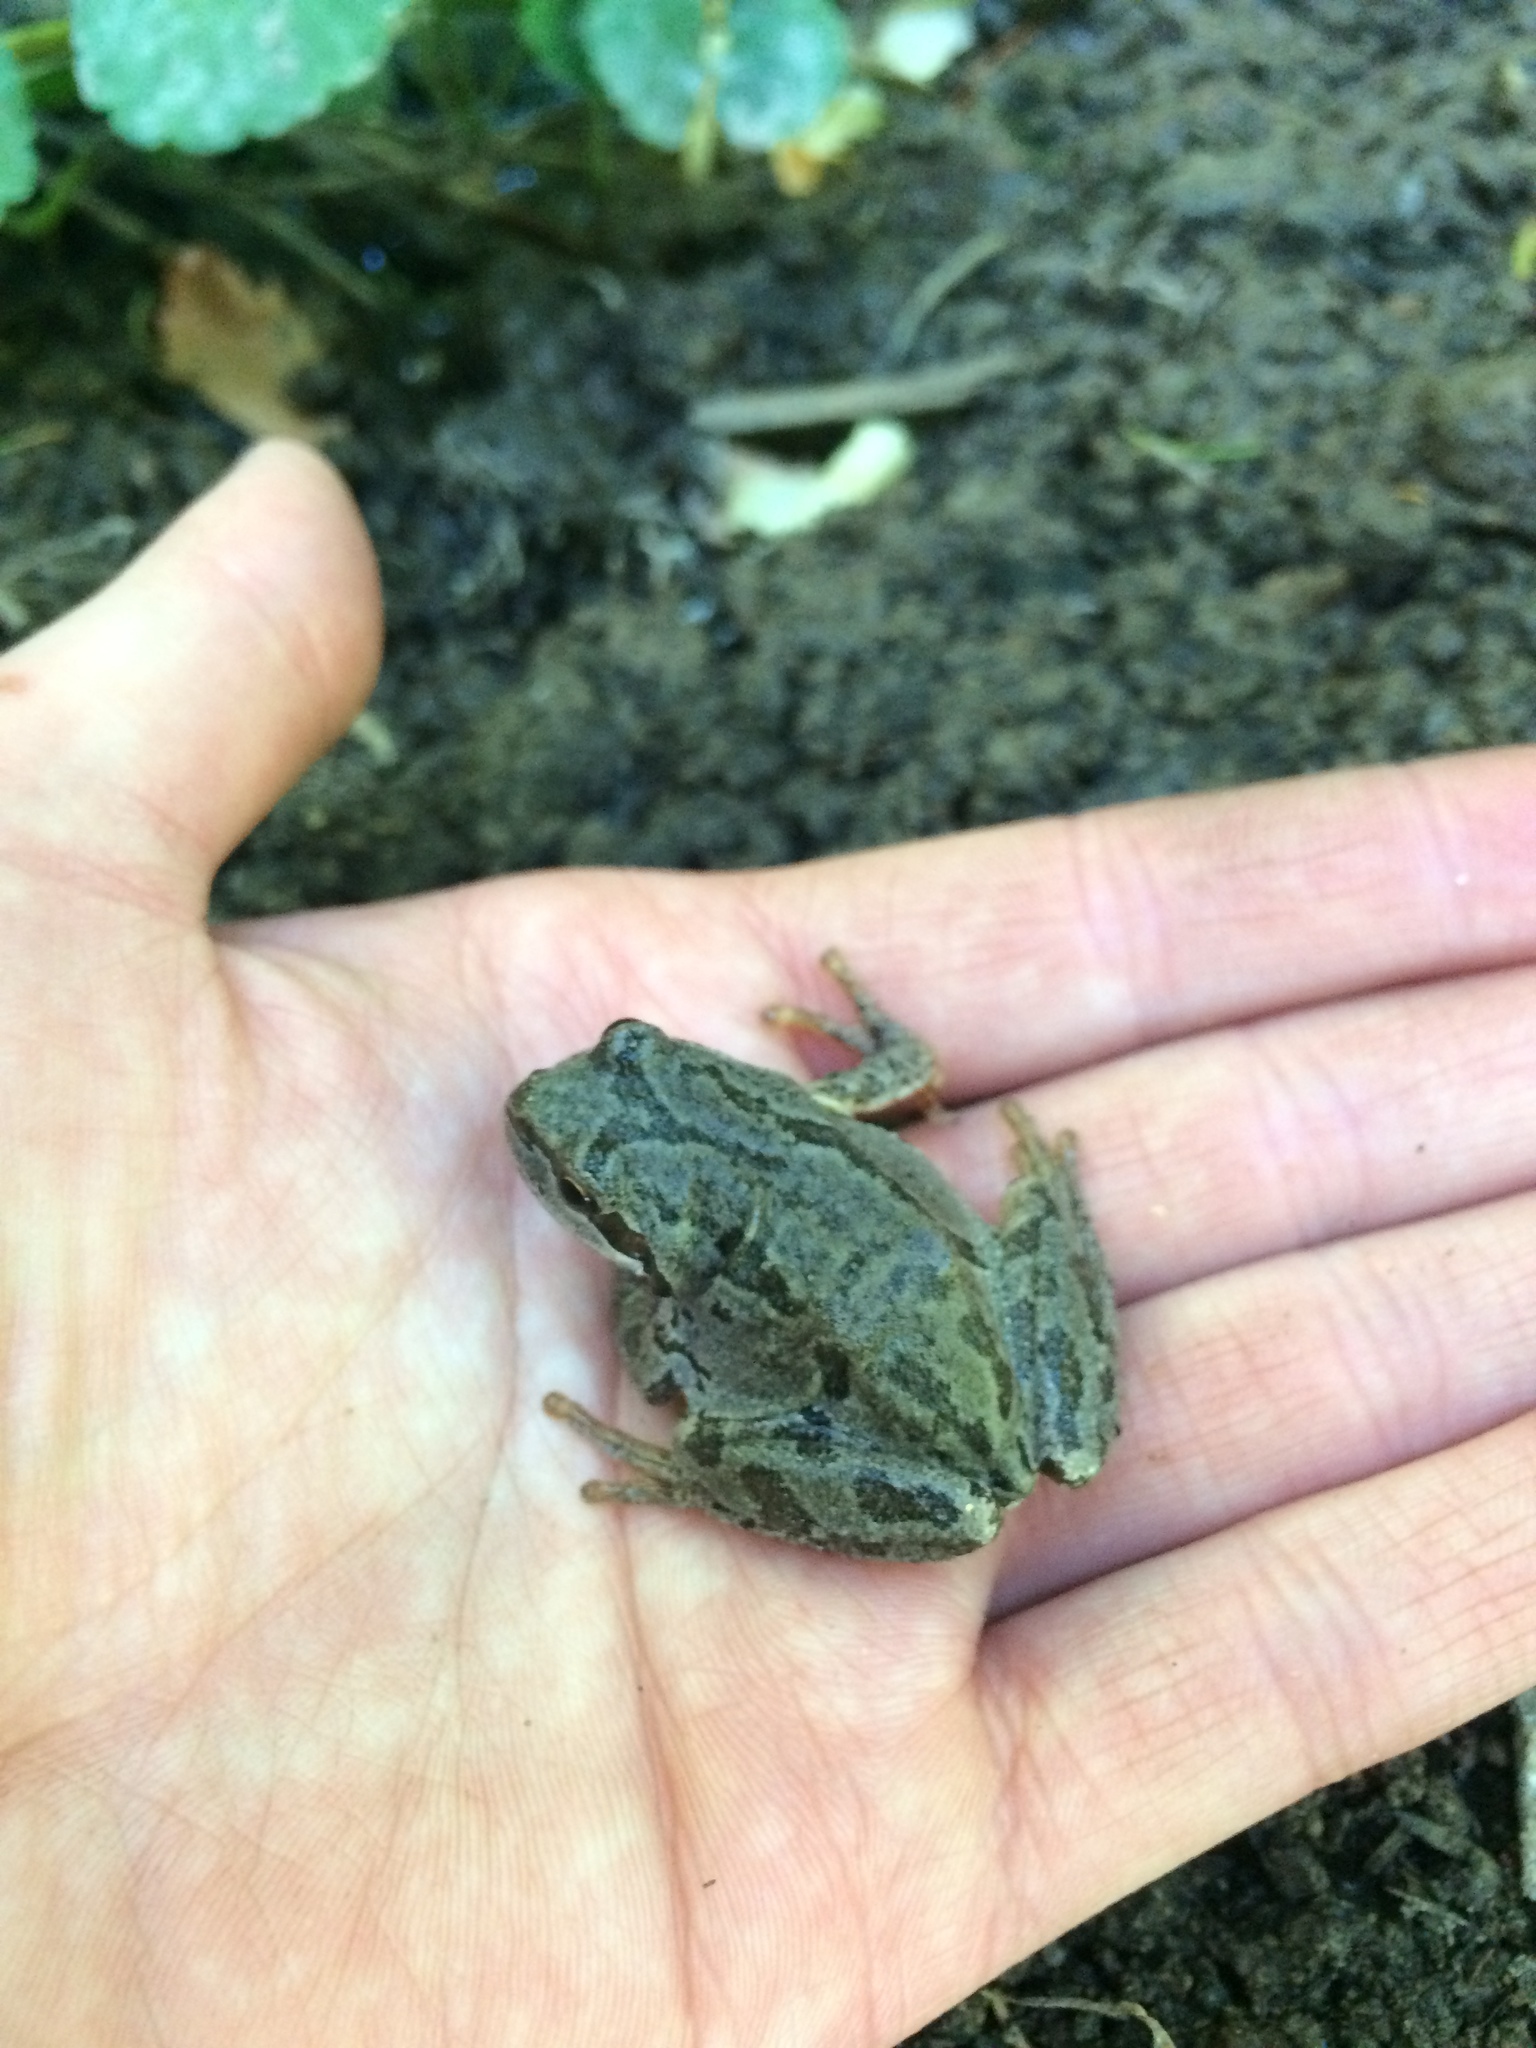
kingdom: Animalia
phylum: Chordata
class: Amphibia
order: Anura
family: Hylidae
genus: Pseudacris
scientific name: Pseudacris regilla
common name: Pacific chorus frog
